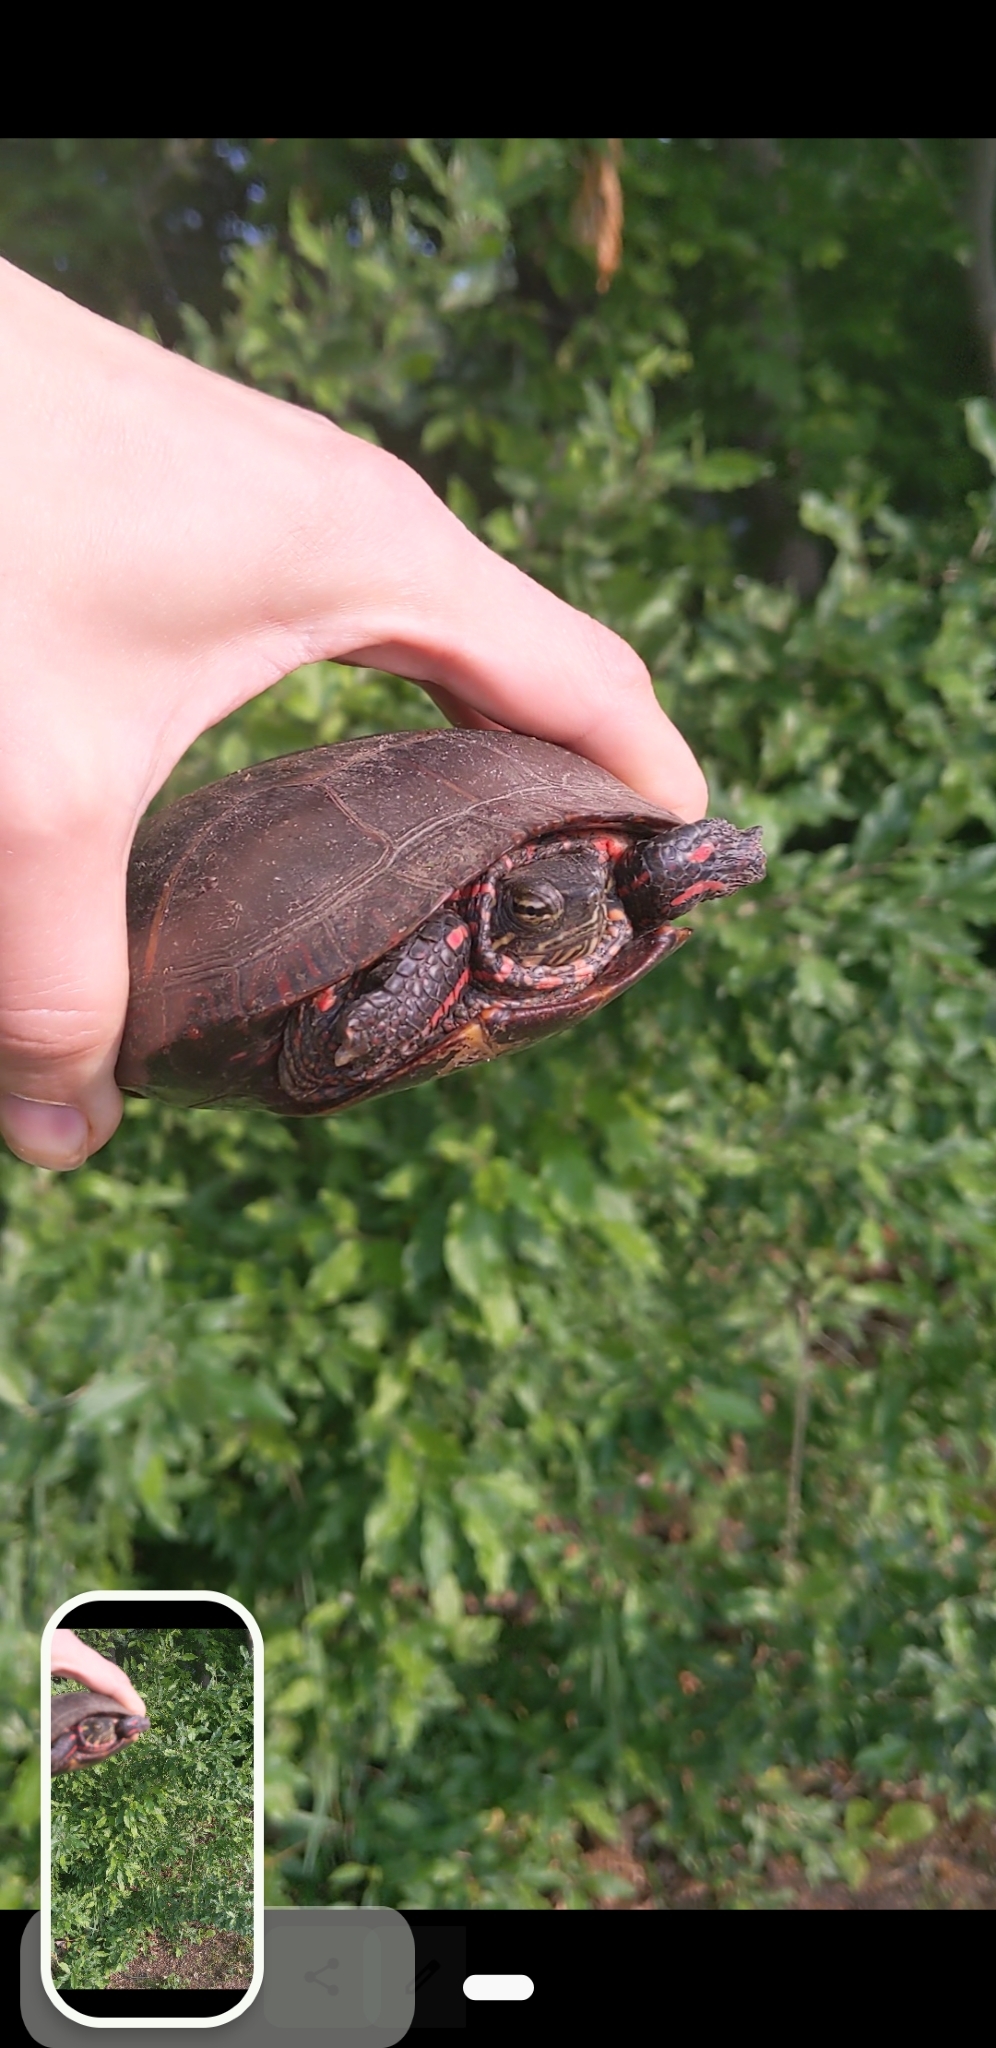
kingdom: Animalia
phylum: Chordata
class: Testudines
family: Emydidae
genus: Chrysemys
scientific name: Chrysemys picta
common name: Painted turtle
